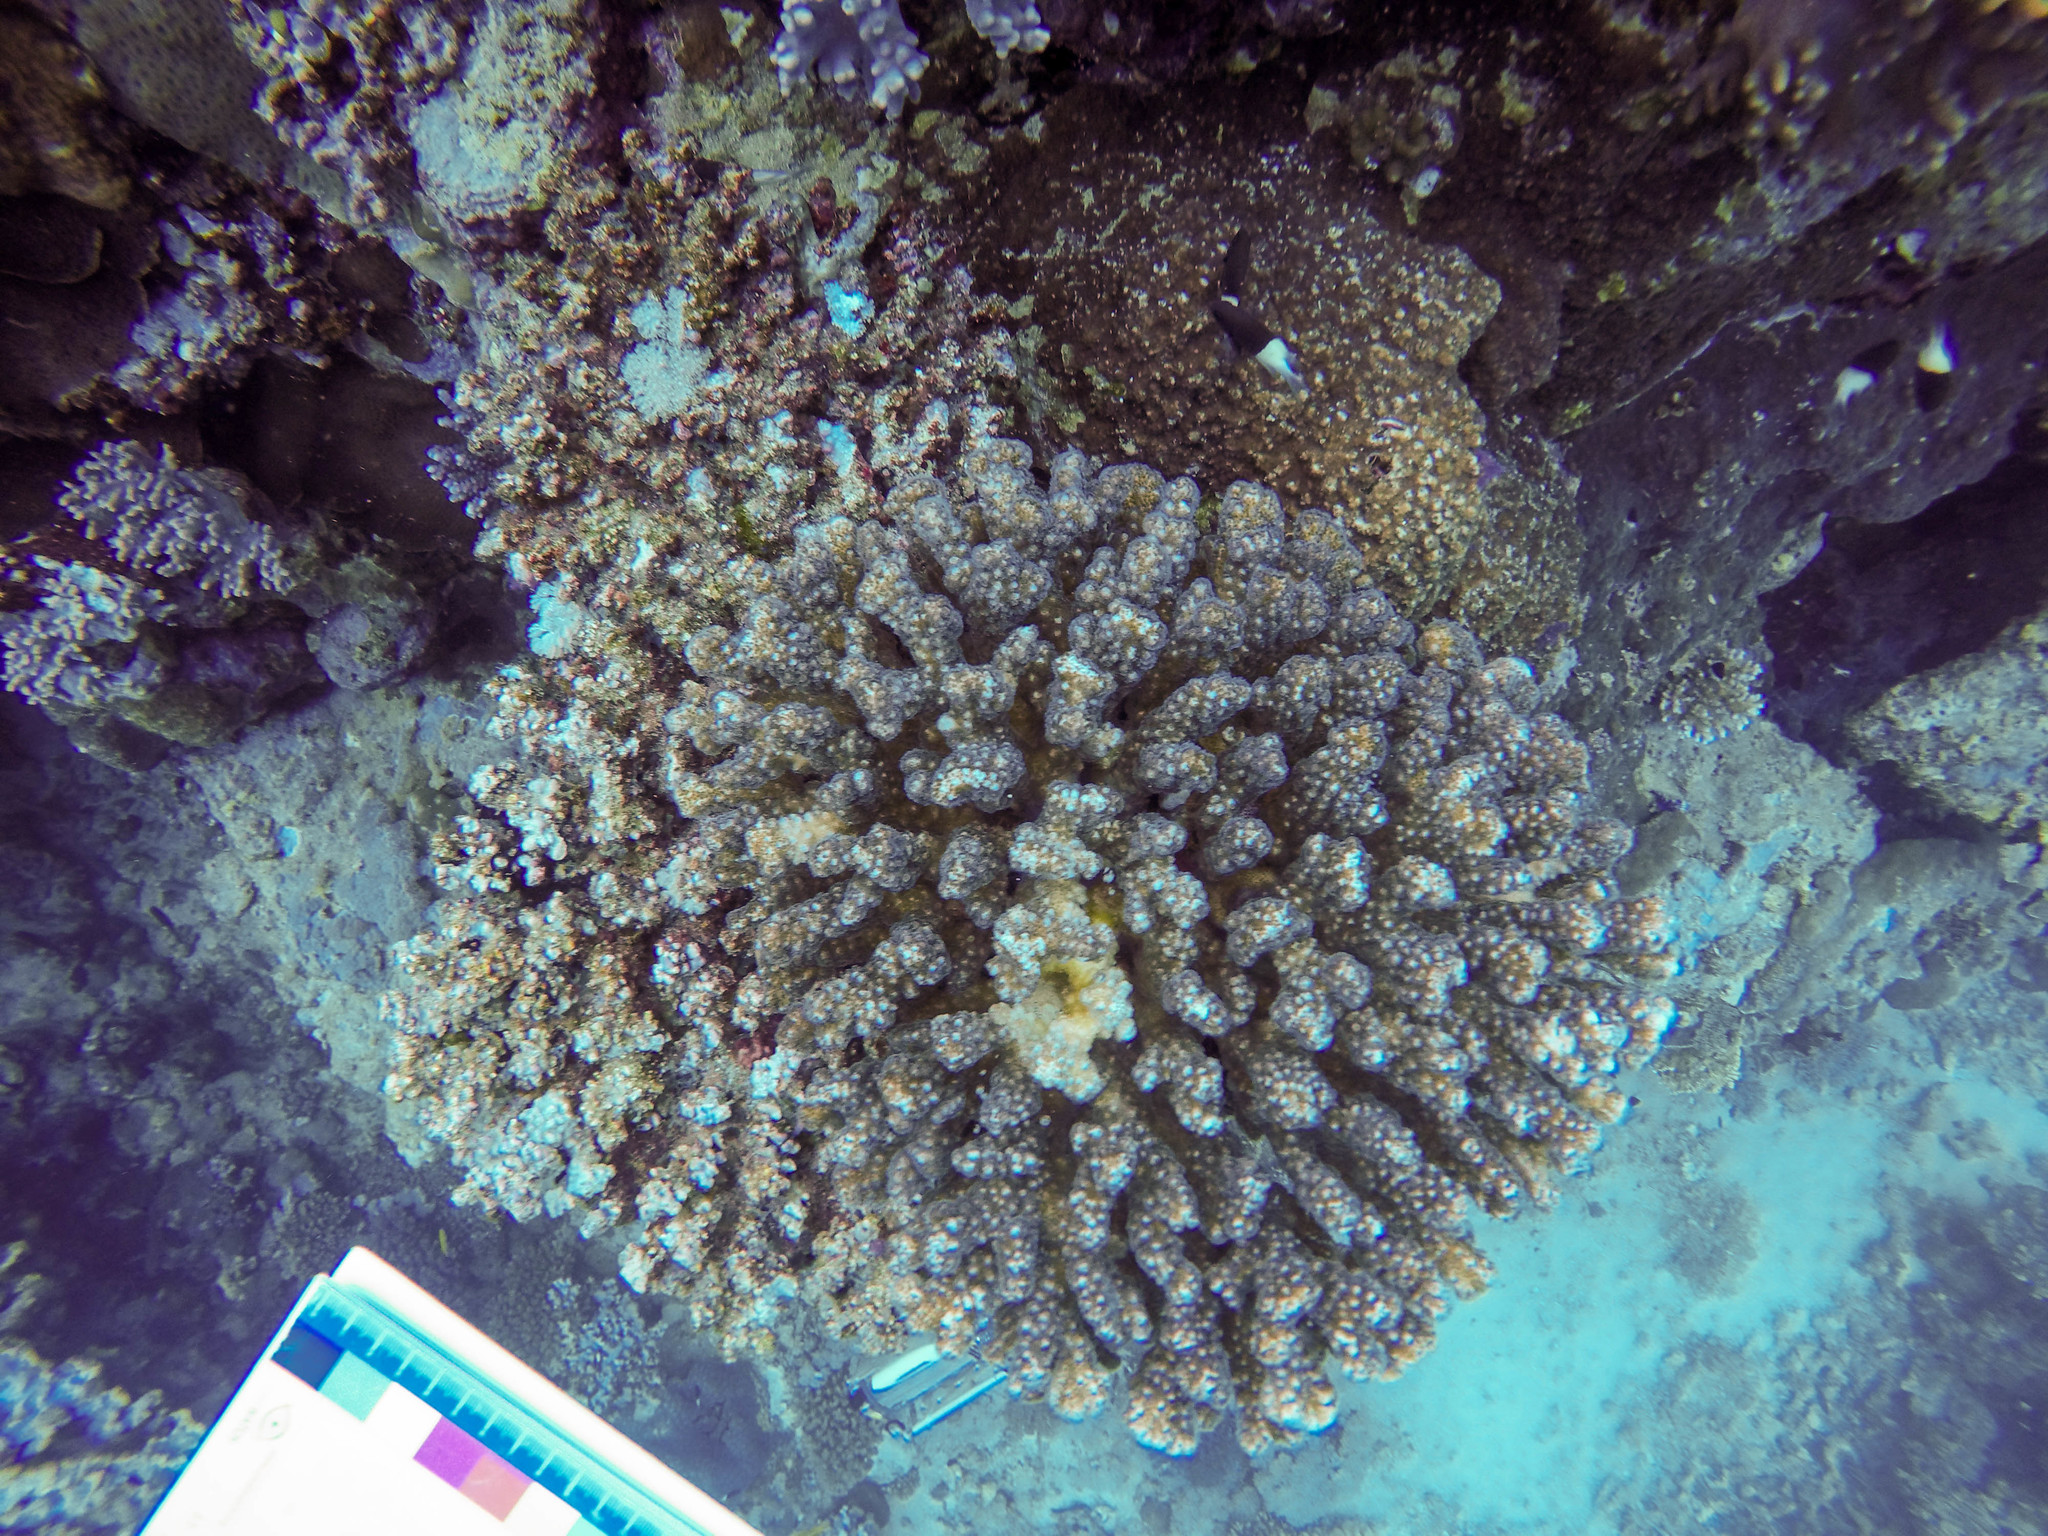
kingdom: Animalia
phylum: Cnidaria
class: Anthozoa
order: Scleractinia
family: Pocilloporidae
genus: Pocillopora
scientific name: Pocillopora verrucosa
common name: Cauliflower coral
